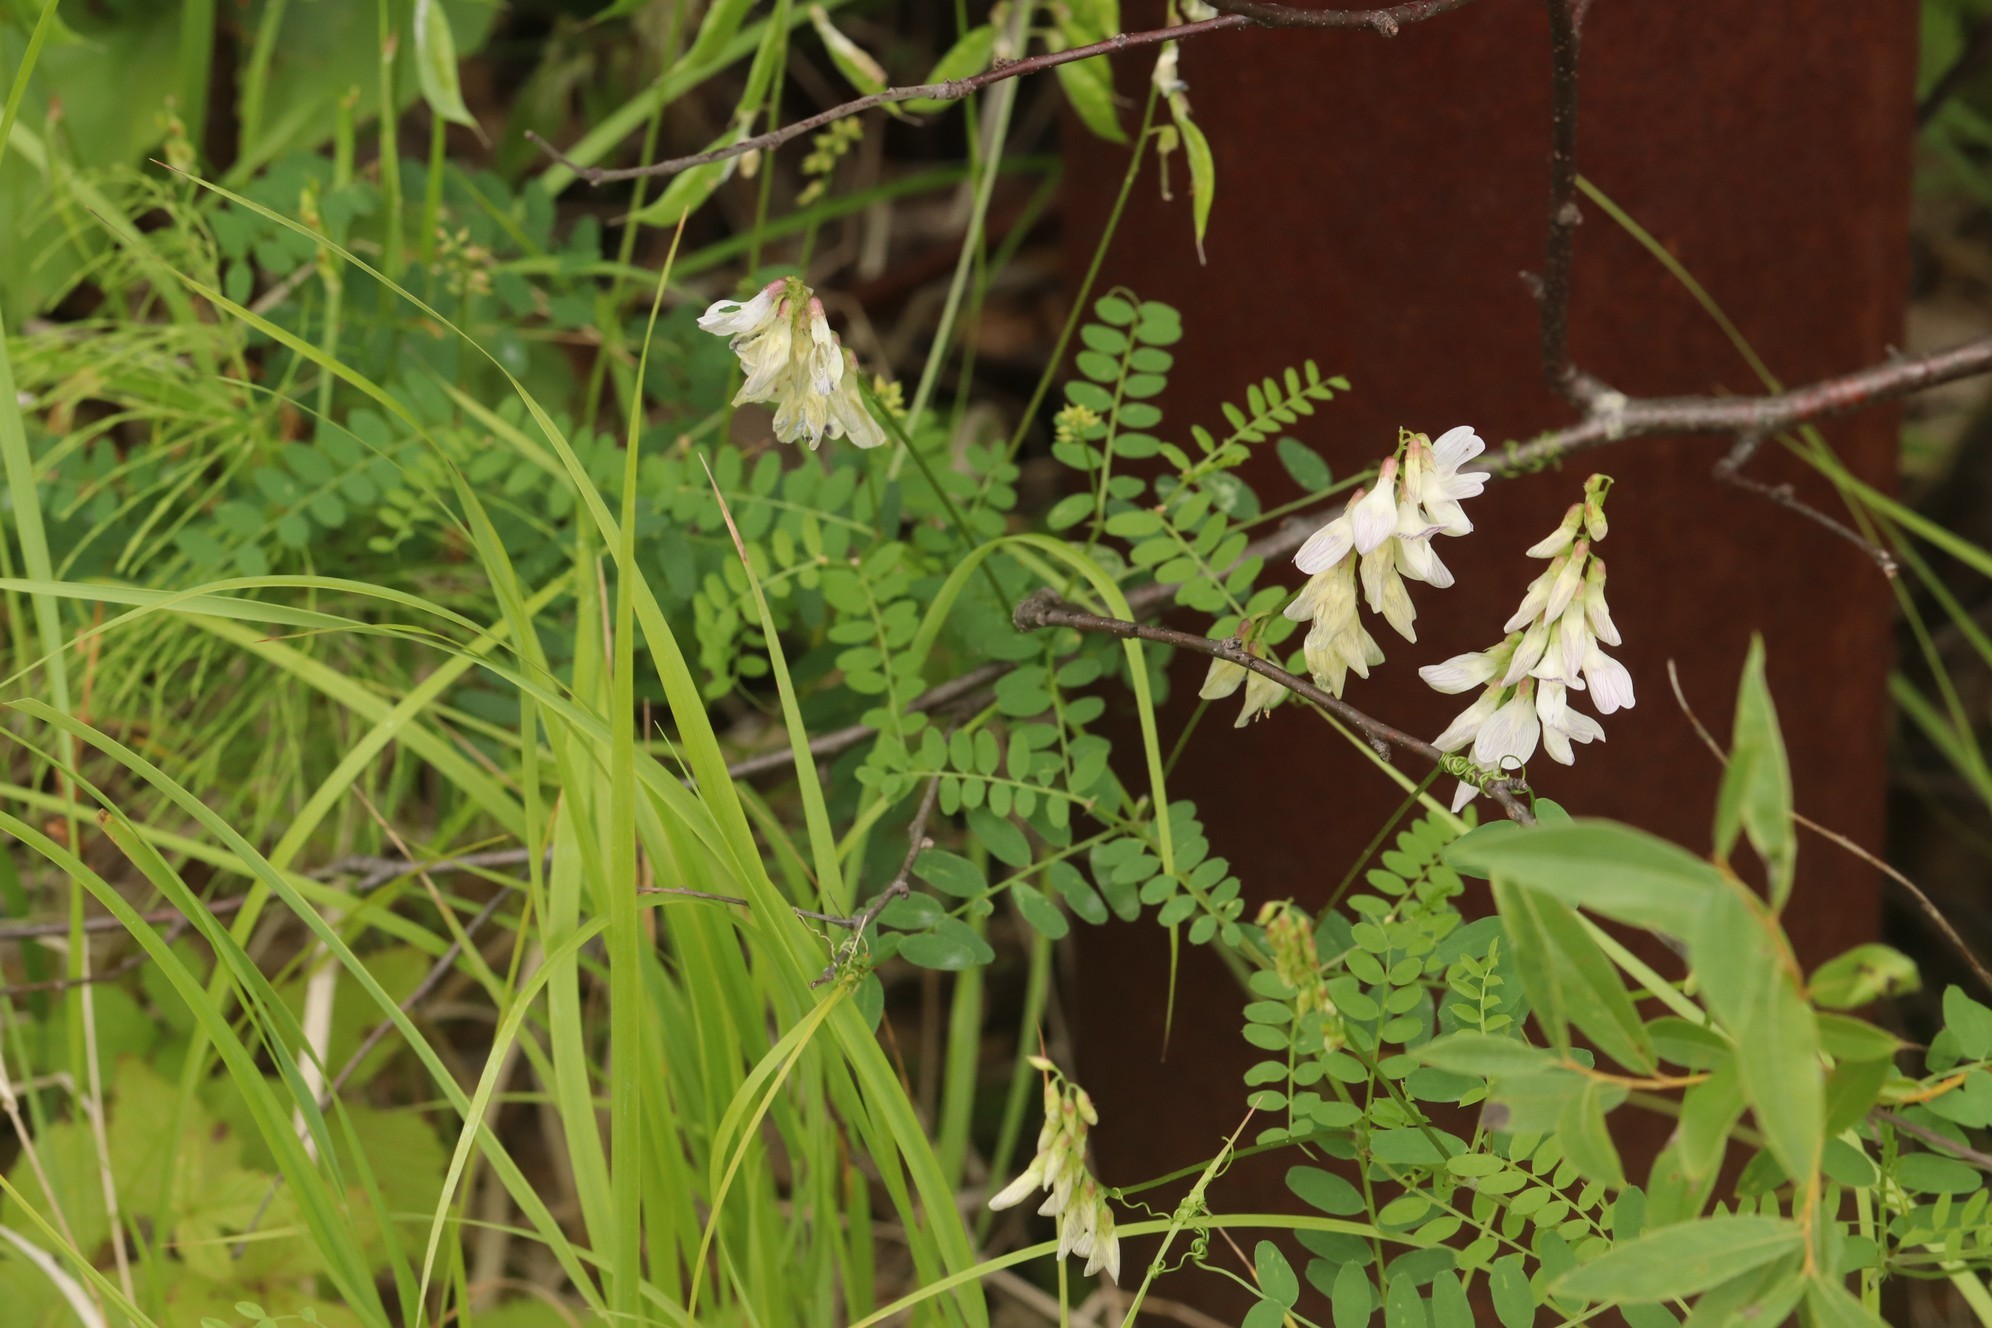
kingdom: Plantae
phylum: Tracheophyta
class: Magnoliopsida
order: Fabales
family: Fabaceae
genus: Vicia
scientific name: Vicia sylvatica
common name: Wood vetch
